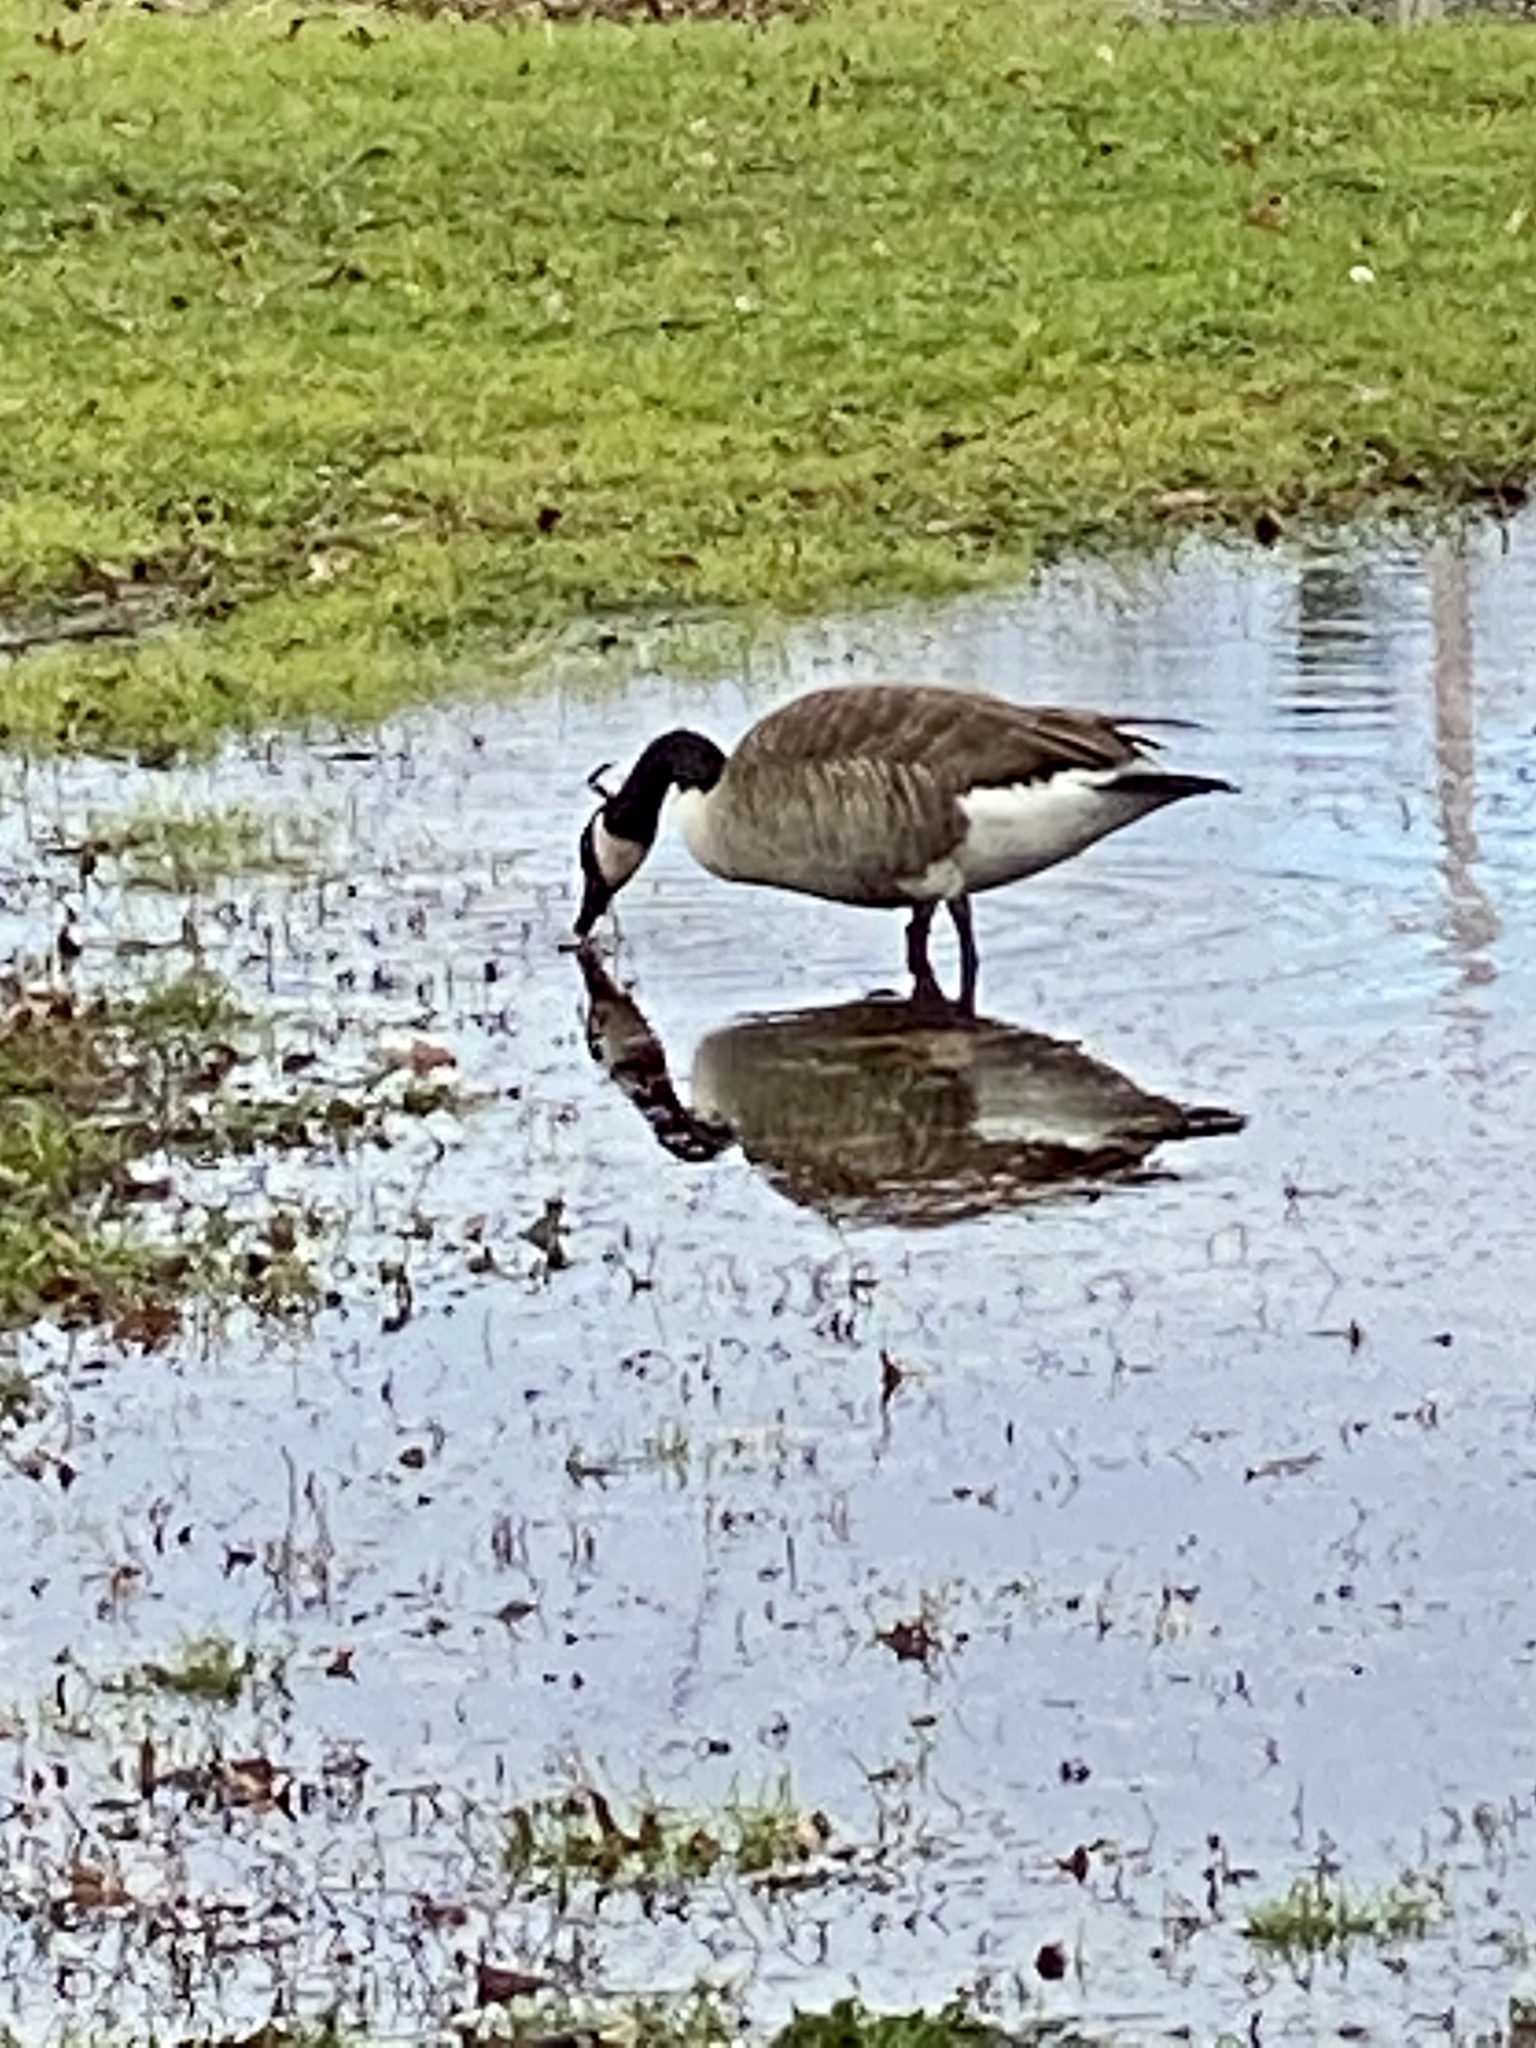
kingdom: Animalia
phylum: Chordata
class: Aves
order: Anseriformes
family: Anatidae
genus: Branta
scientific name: Branta canadensis
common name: Canada goose
